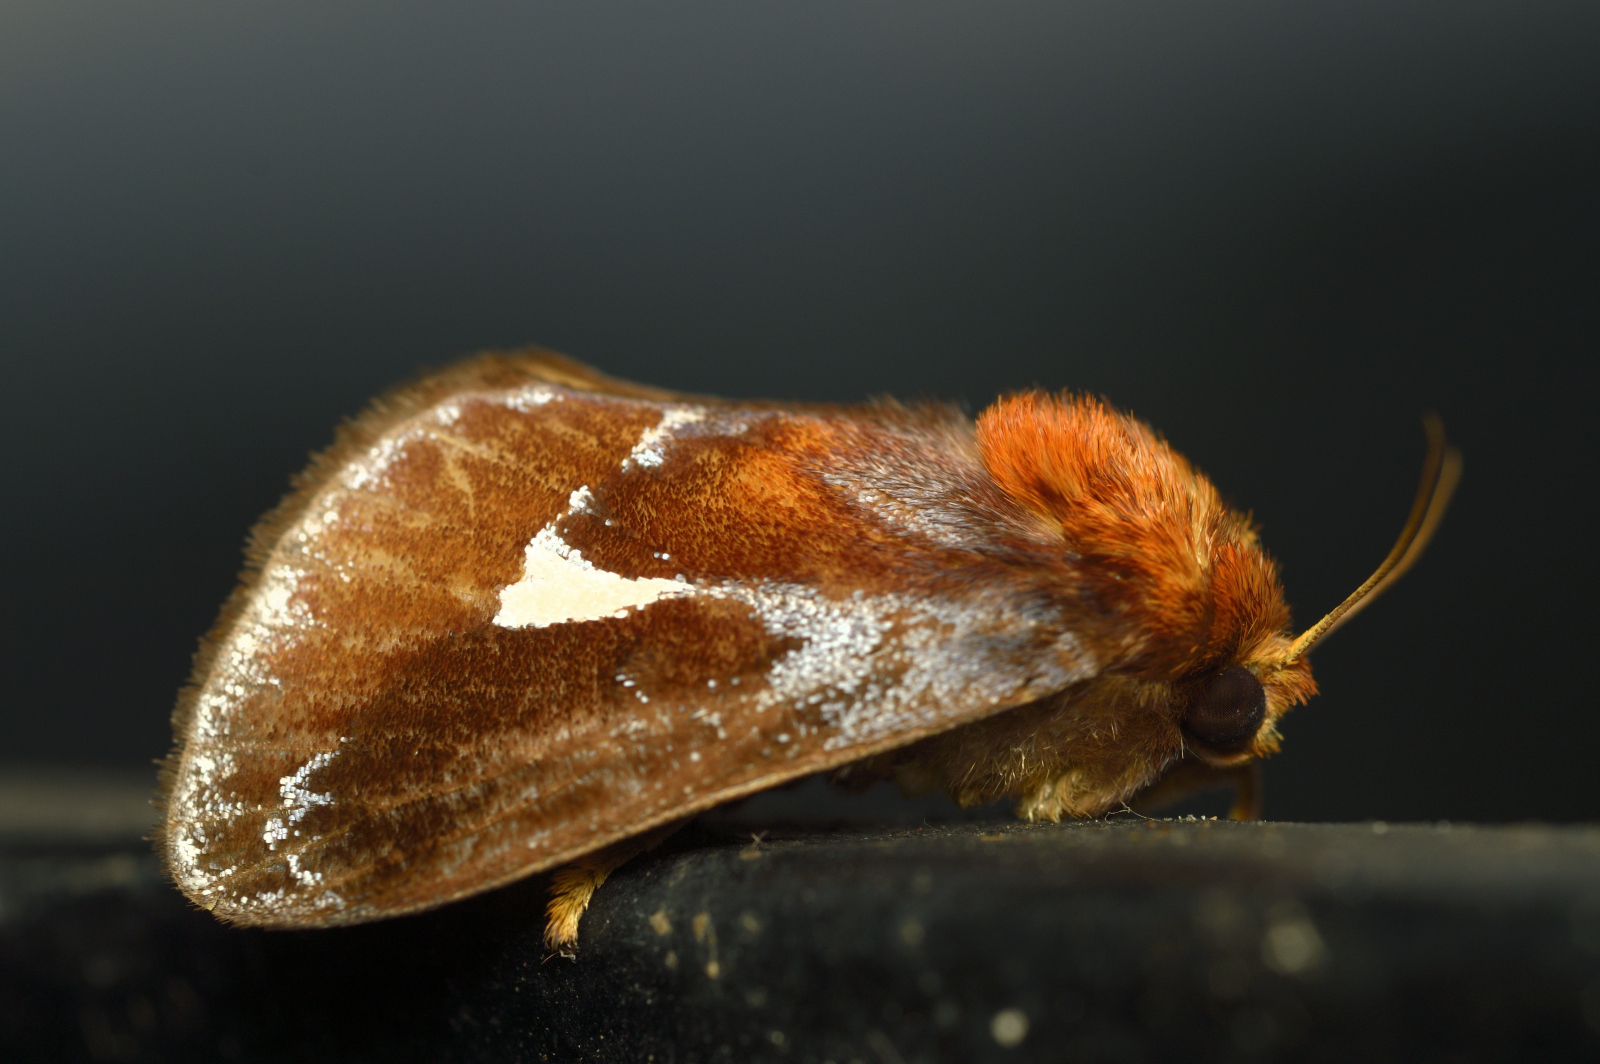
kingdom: Animalia
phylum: Arthropoda
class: Insecta
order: Lepidoptera
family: Limacodidae
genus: Miresa
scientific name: Miresa pyronota
